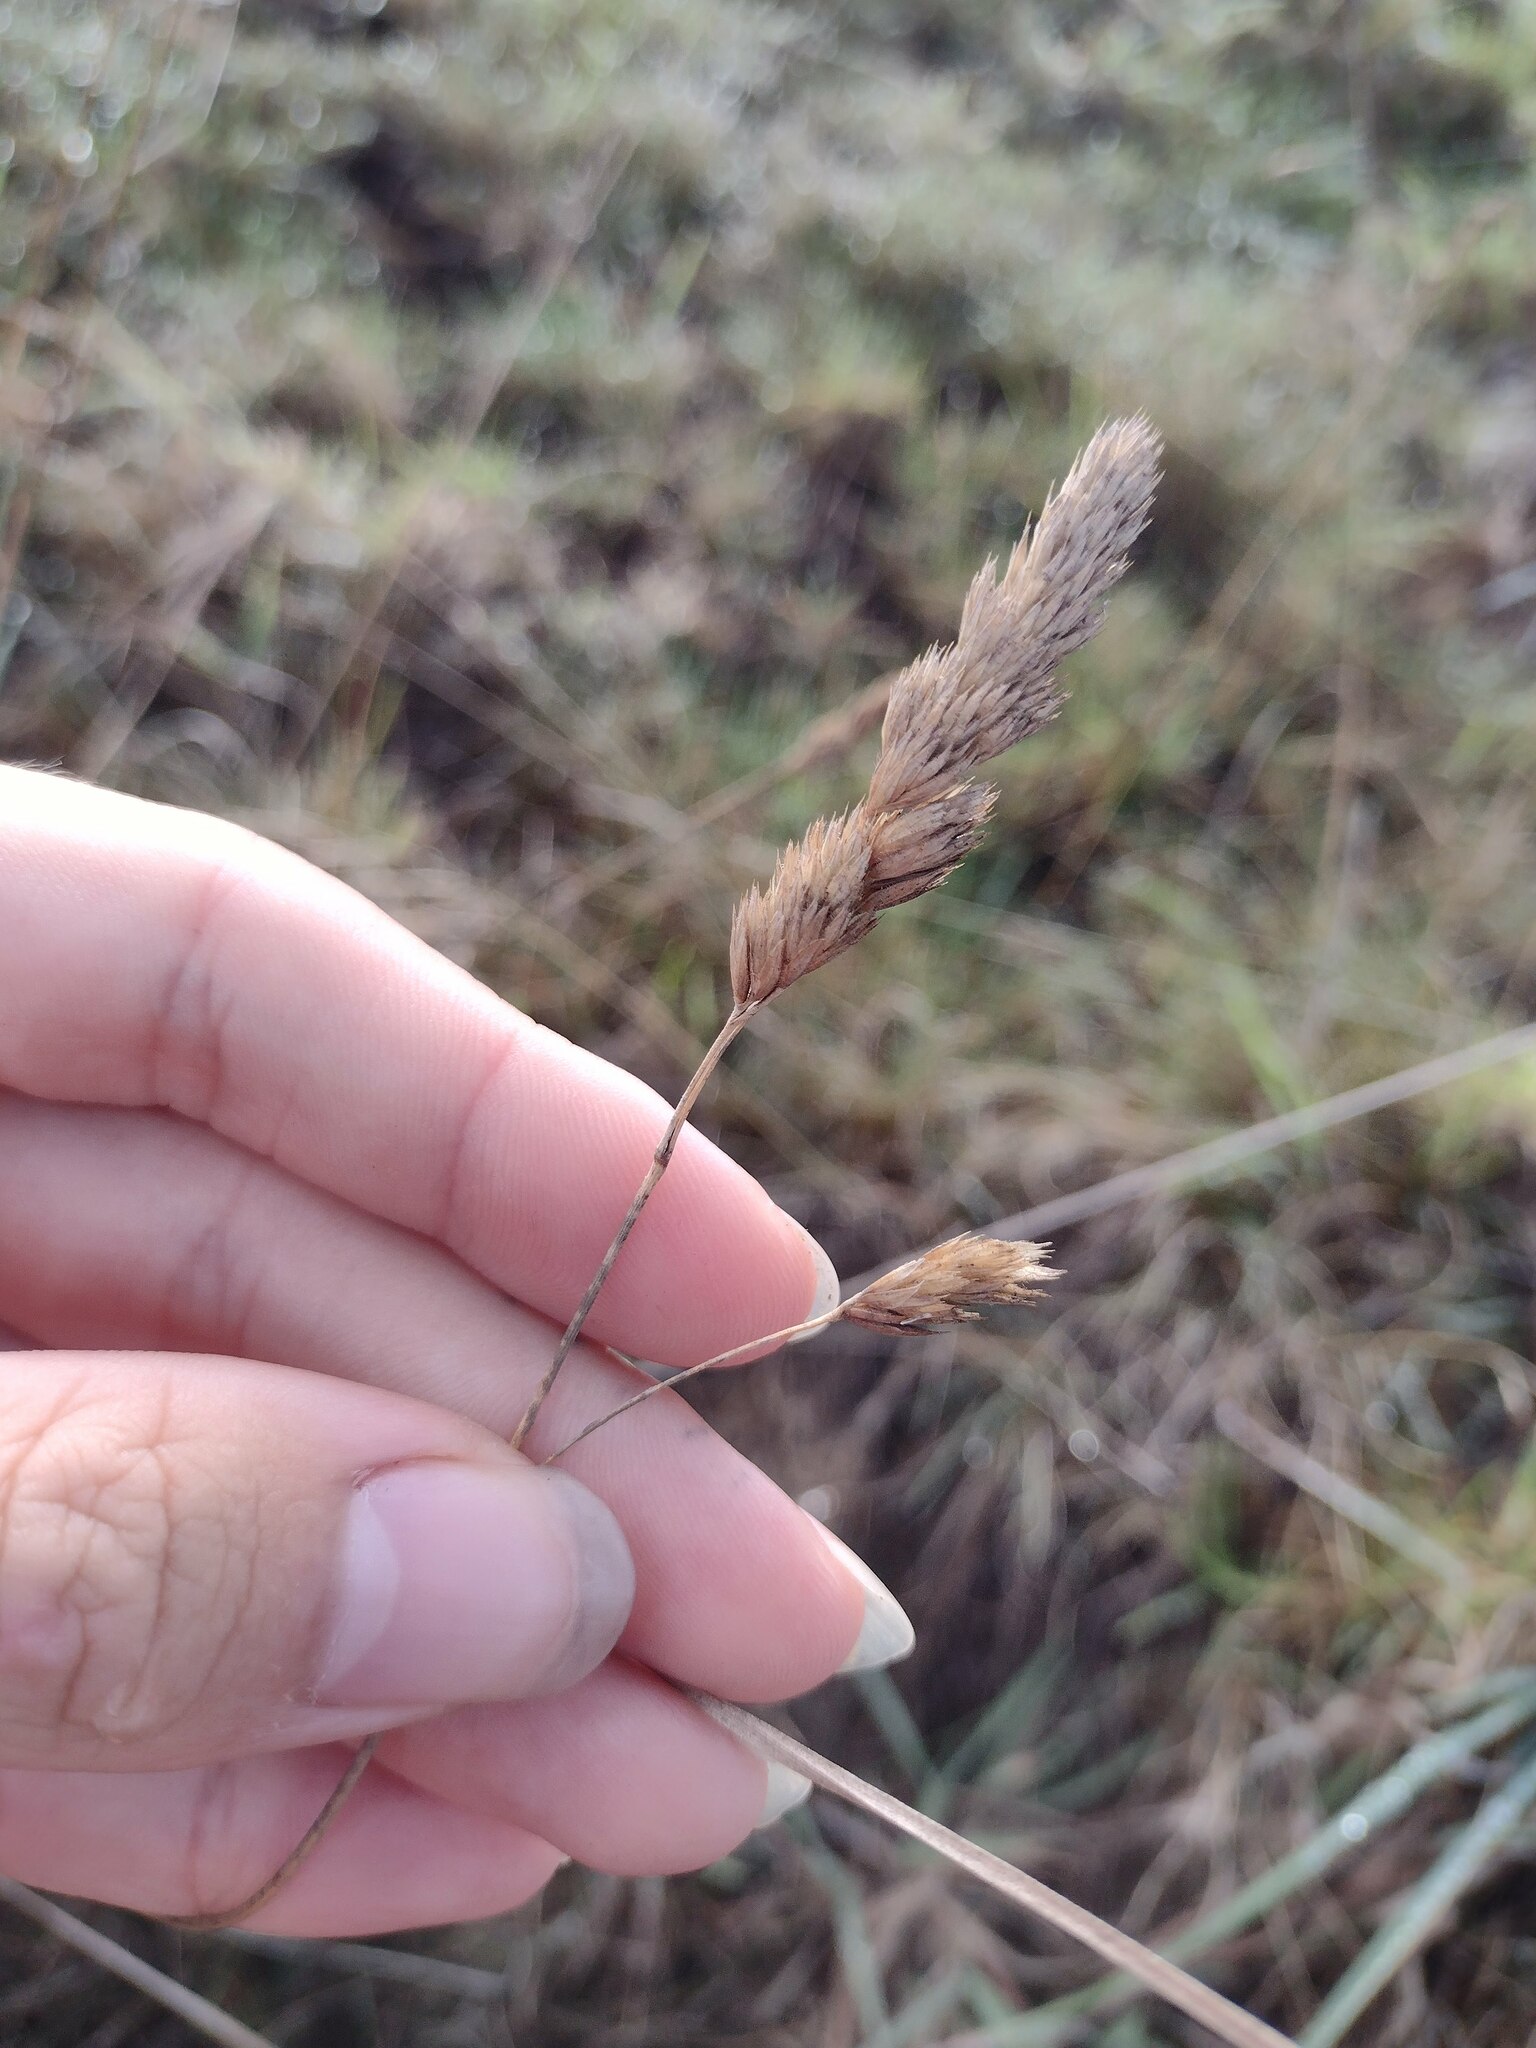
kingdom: Plantae
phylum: Tracheophyta
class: Liliopsida
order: Poales
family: Poaceae
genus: Dactylis
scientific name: Dactylis glomerata
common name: Orchardgrass
